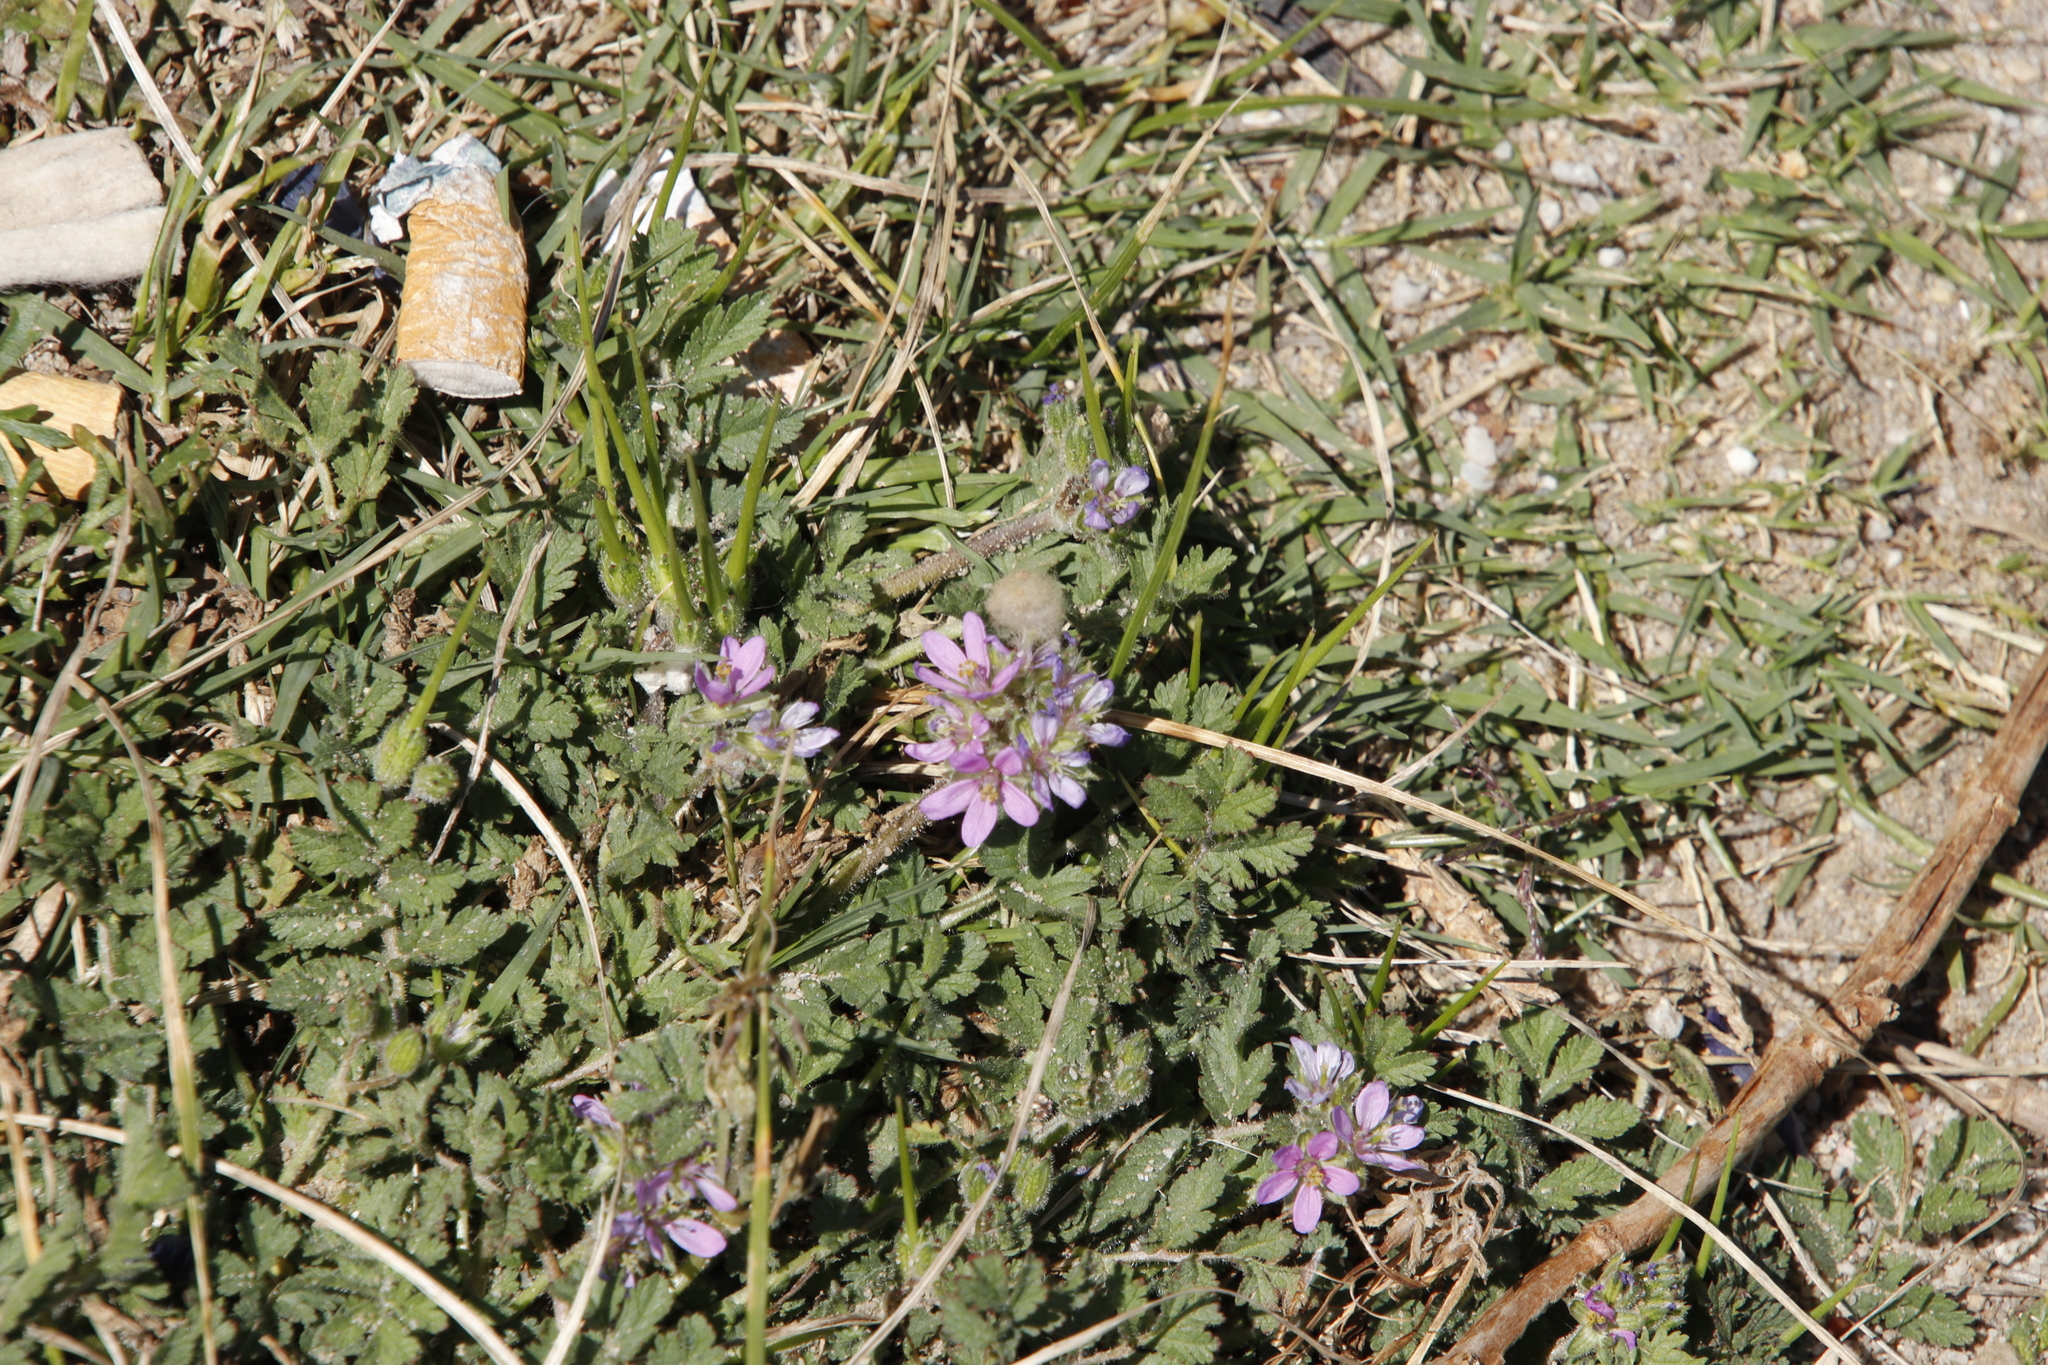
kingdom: Plantae
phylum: Tracheophyta
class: Magnoliopsida
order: Geraniales
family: Geraniaceae
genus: Erodium
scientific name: Erodium moschatum
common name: Musk stork's-bill
